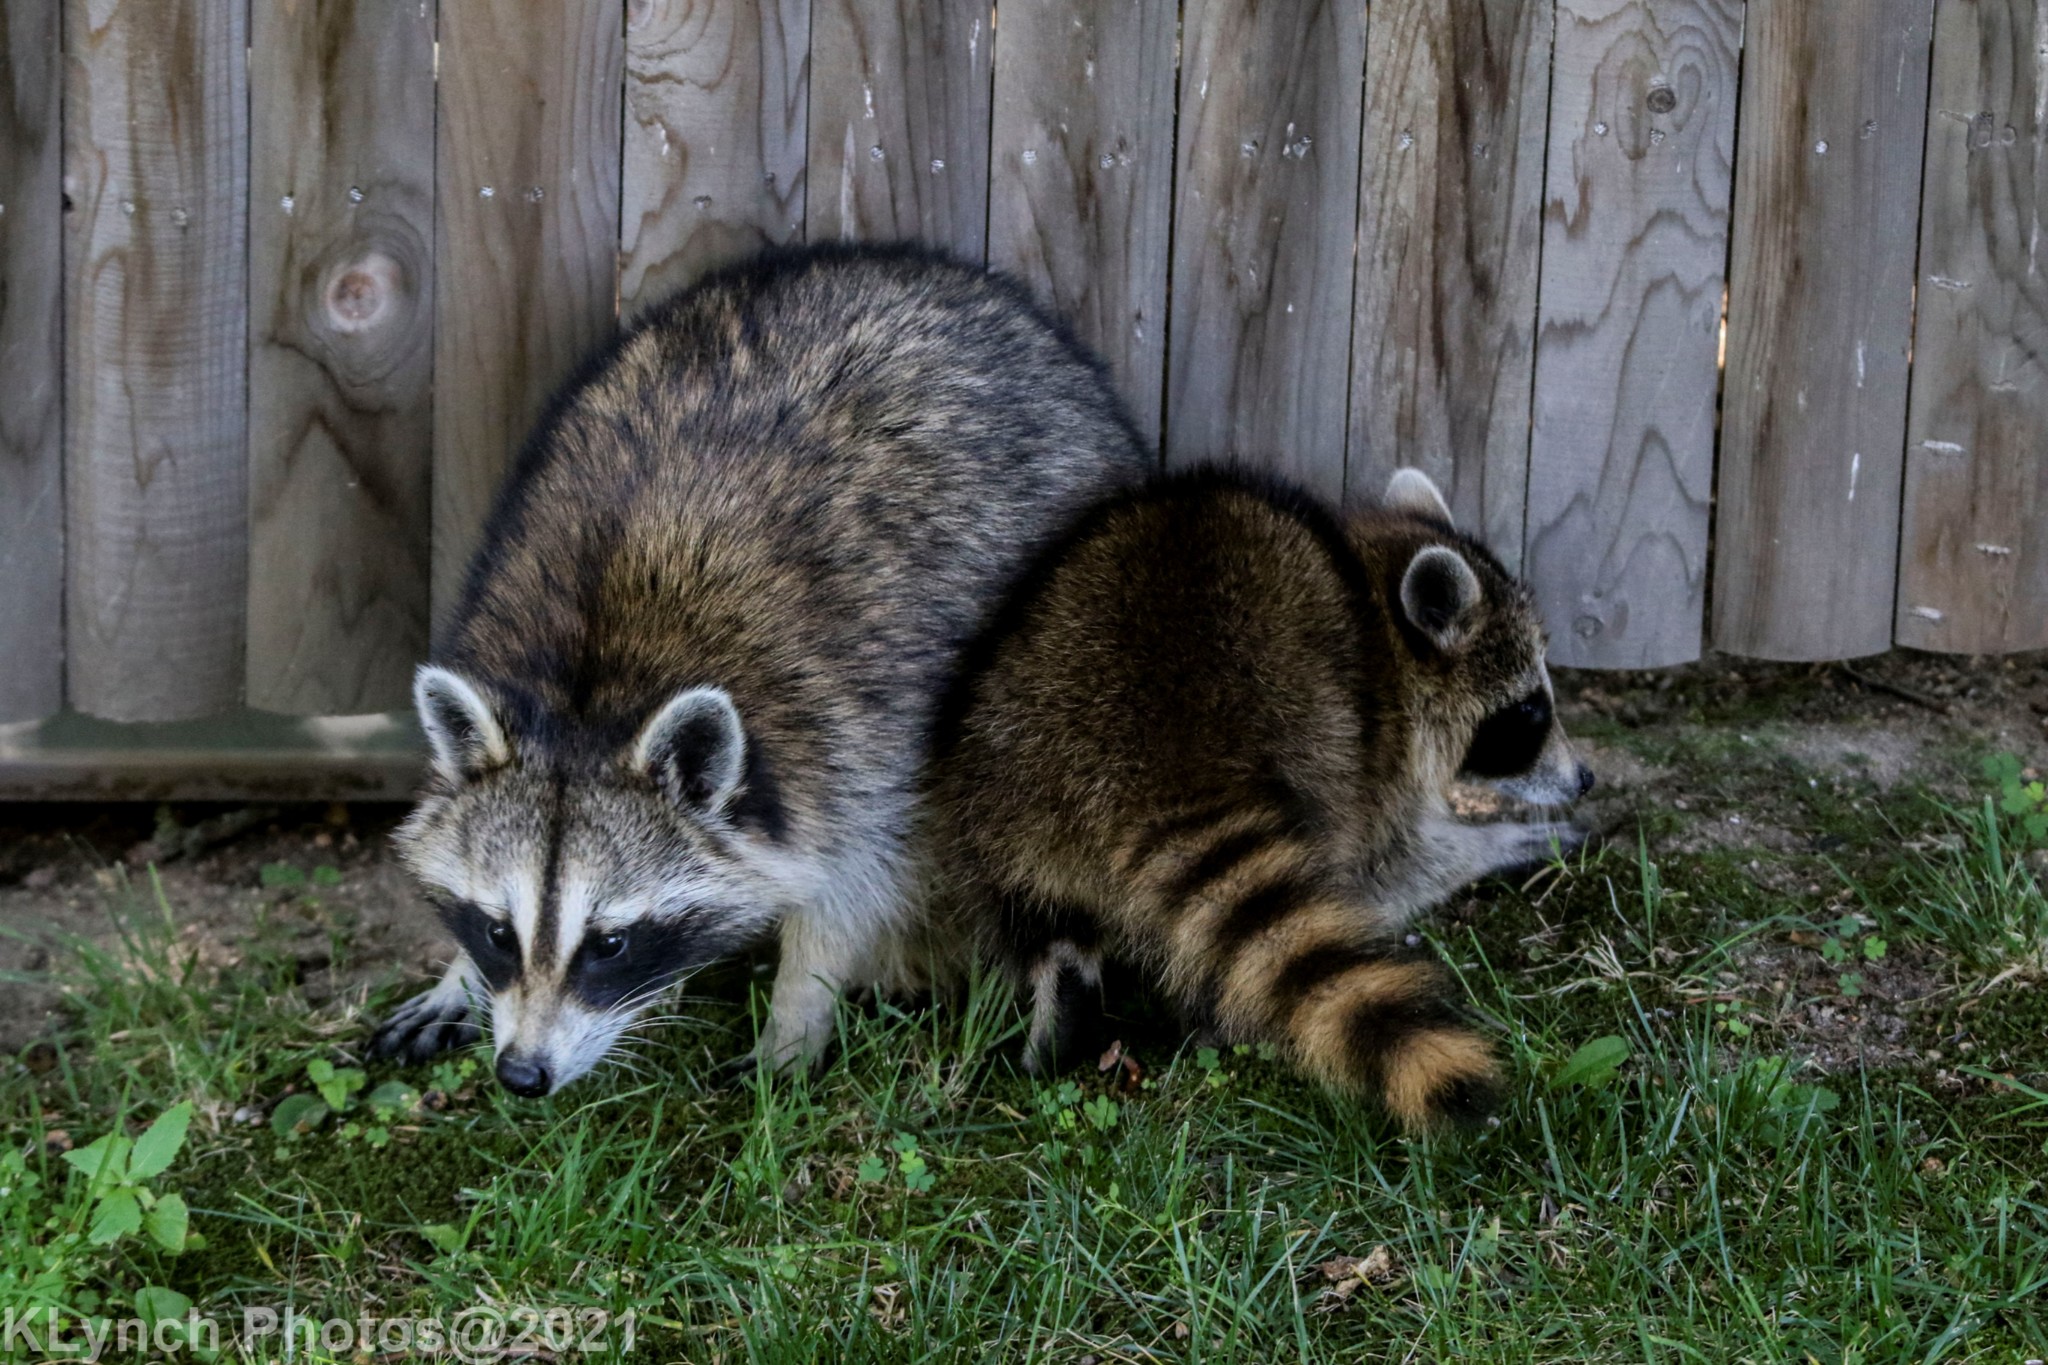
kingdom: Animalia
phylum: Chordata
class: Mammalia
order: Carnivora
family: Procyonidae
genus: Procyon
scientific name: Procyon lotor
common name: Raccoon
